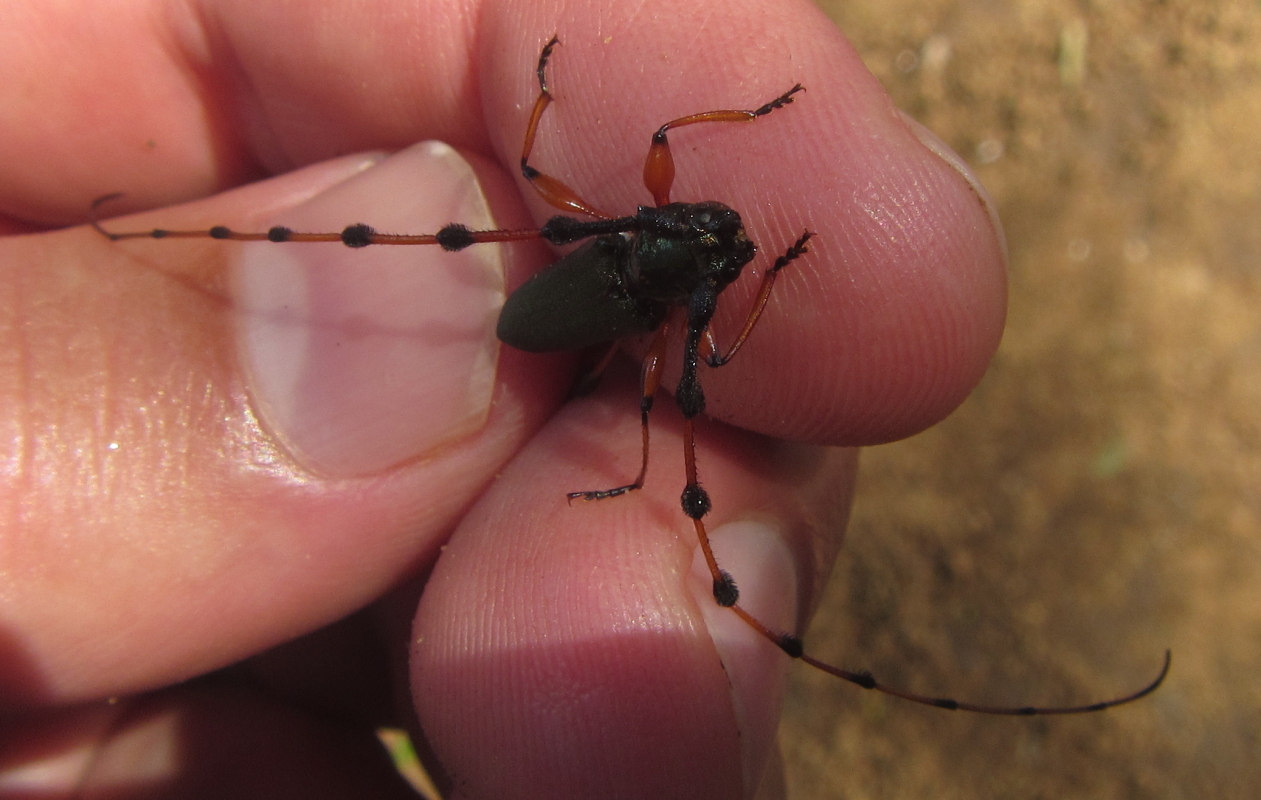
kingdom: Animalia
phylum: Arthropoda
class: Insecta
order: Coleoptera
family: Cerambycidae
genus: Evgenius
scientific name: Evgenius plumatus
